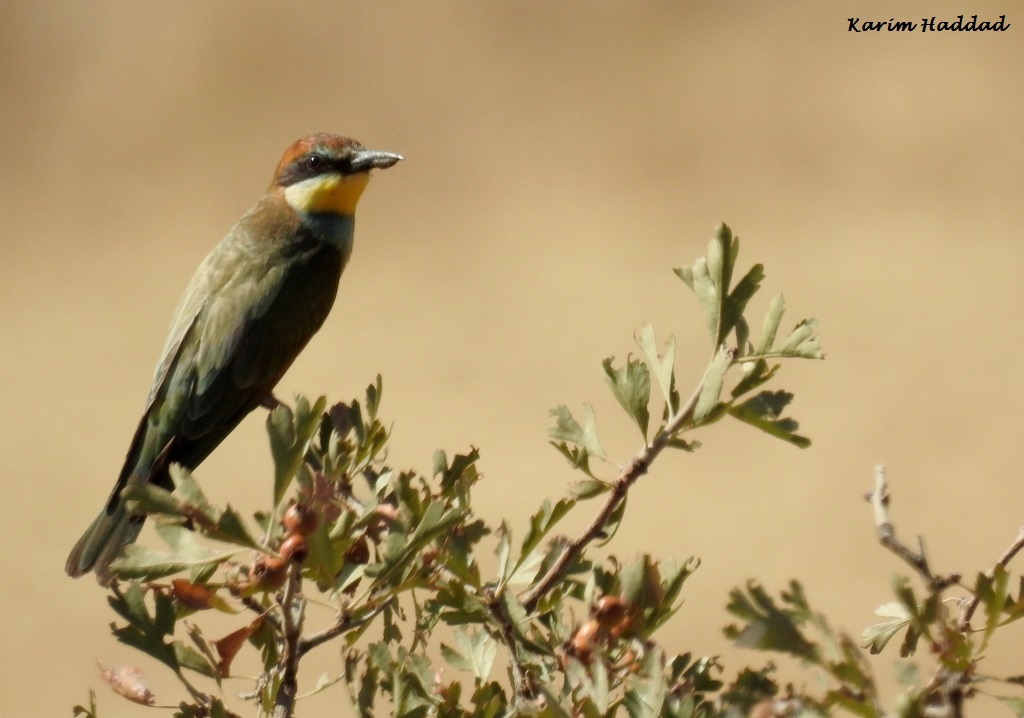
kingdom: Animalia
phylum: Chordata
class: Aves
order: Coraciiformes
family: Meropidae
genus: Merops
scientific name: Merops apiaster
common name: European bee-eater
